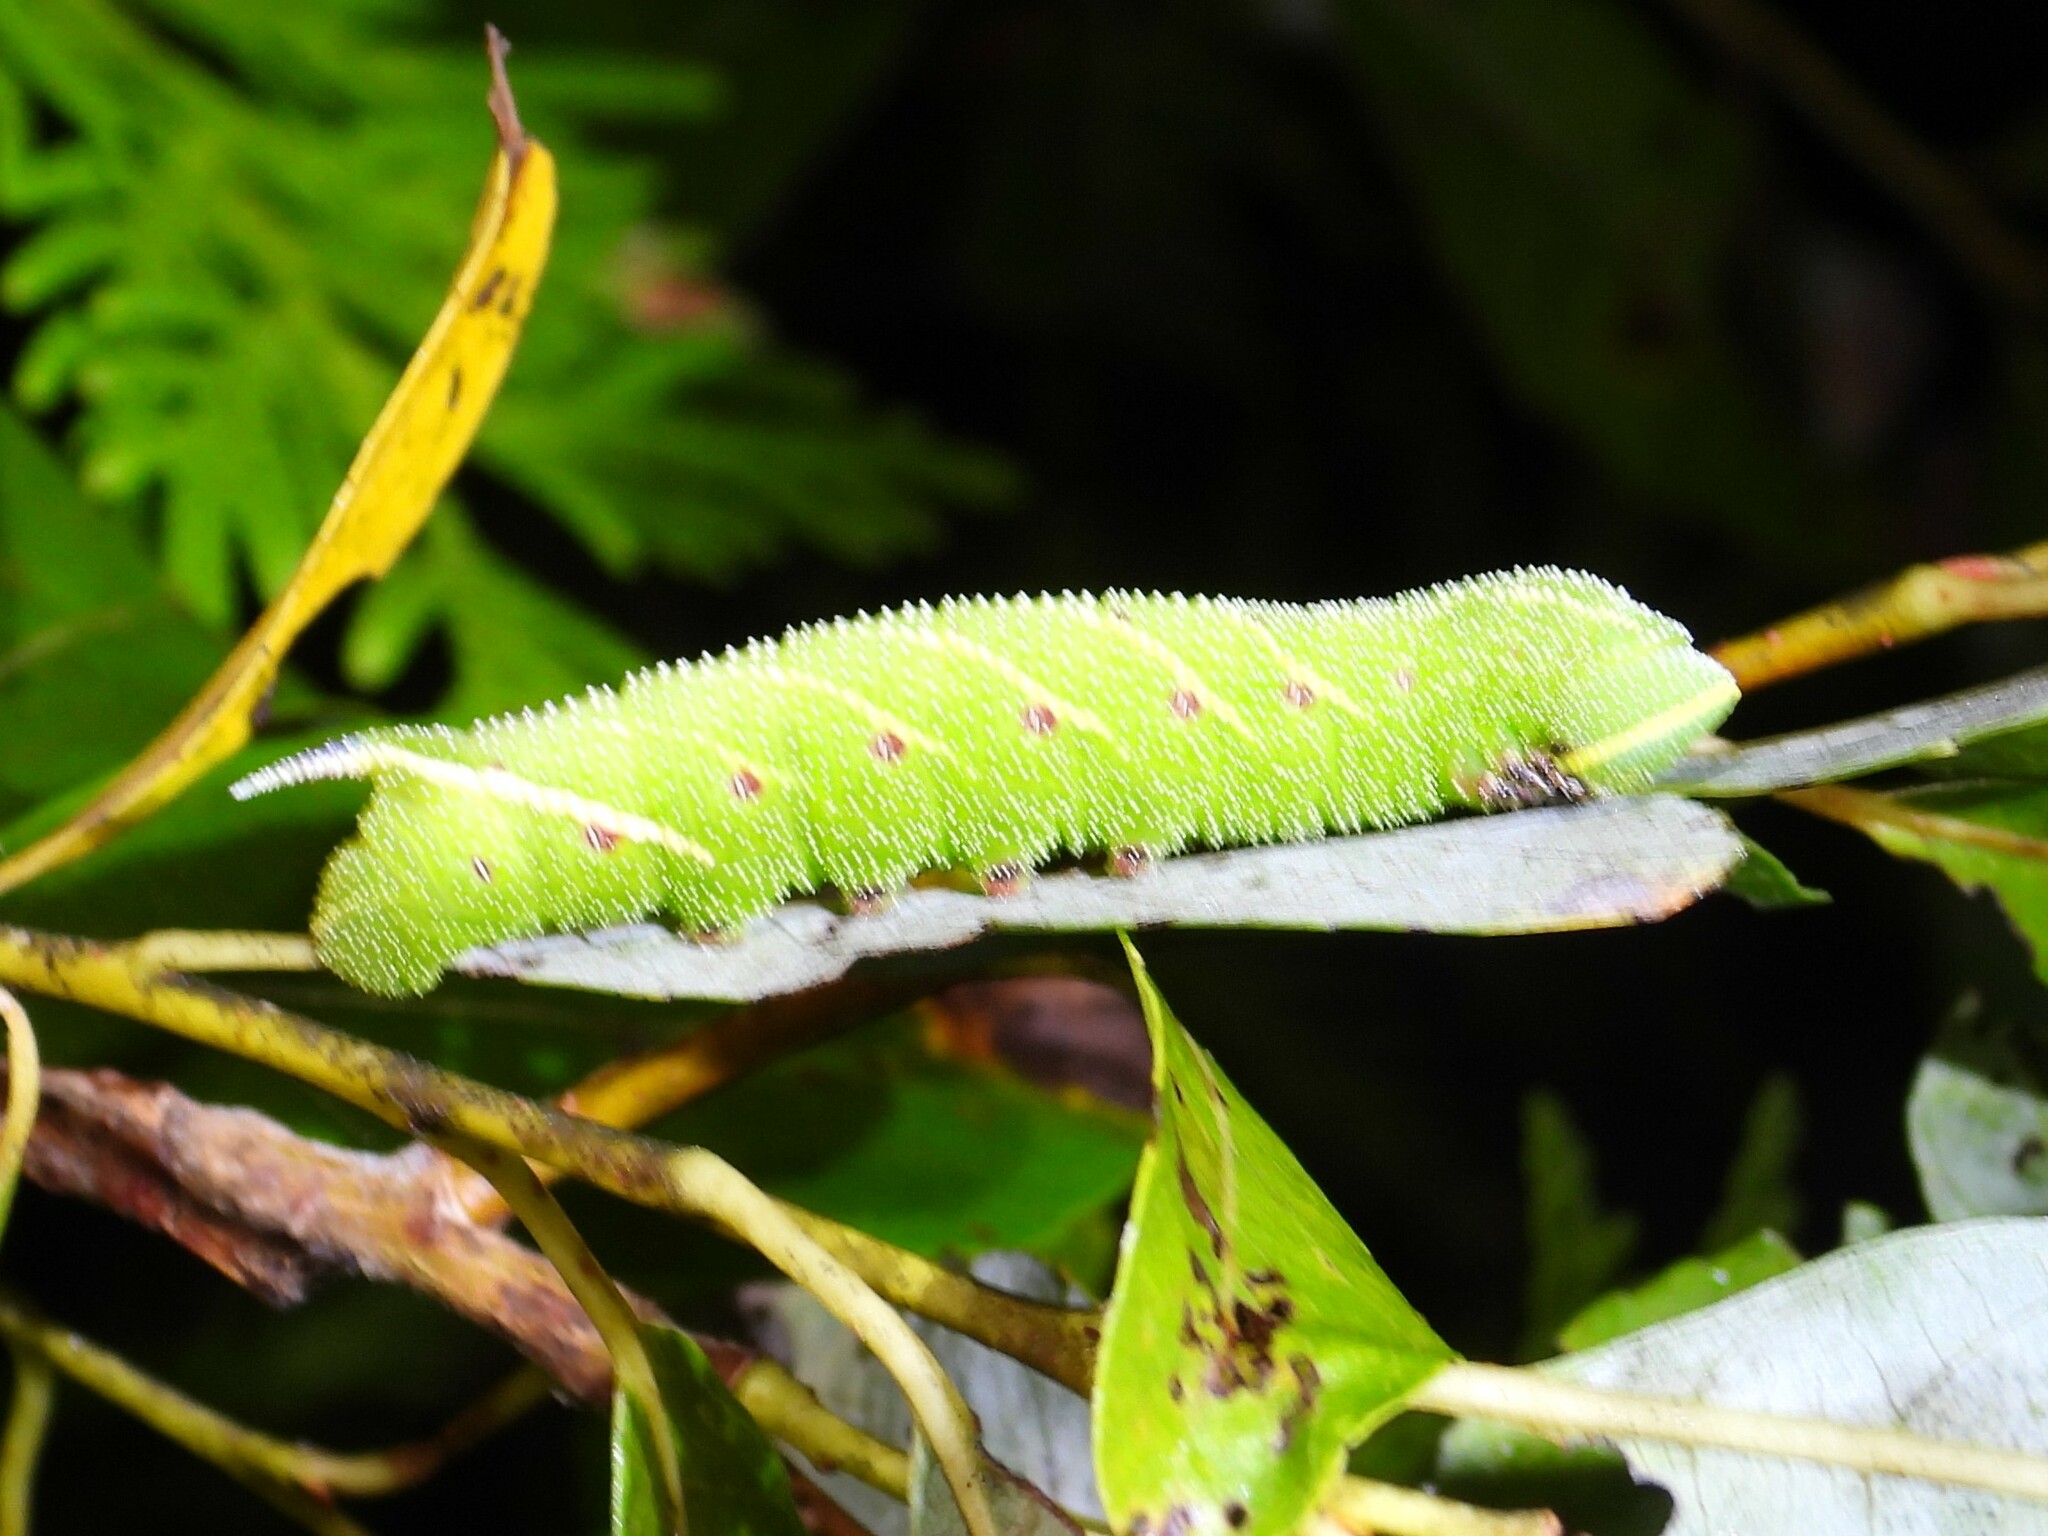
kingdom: Animalia
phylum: Arthropoda
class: Insecta
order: Lepidoptera
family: Sphingidae
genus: Smerinthus
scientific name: Smerinthus jamaicensis
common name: Twin spotted sphinx
